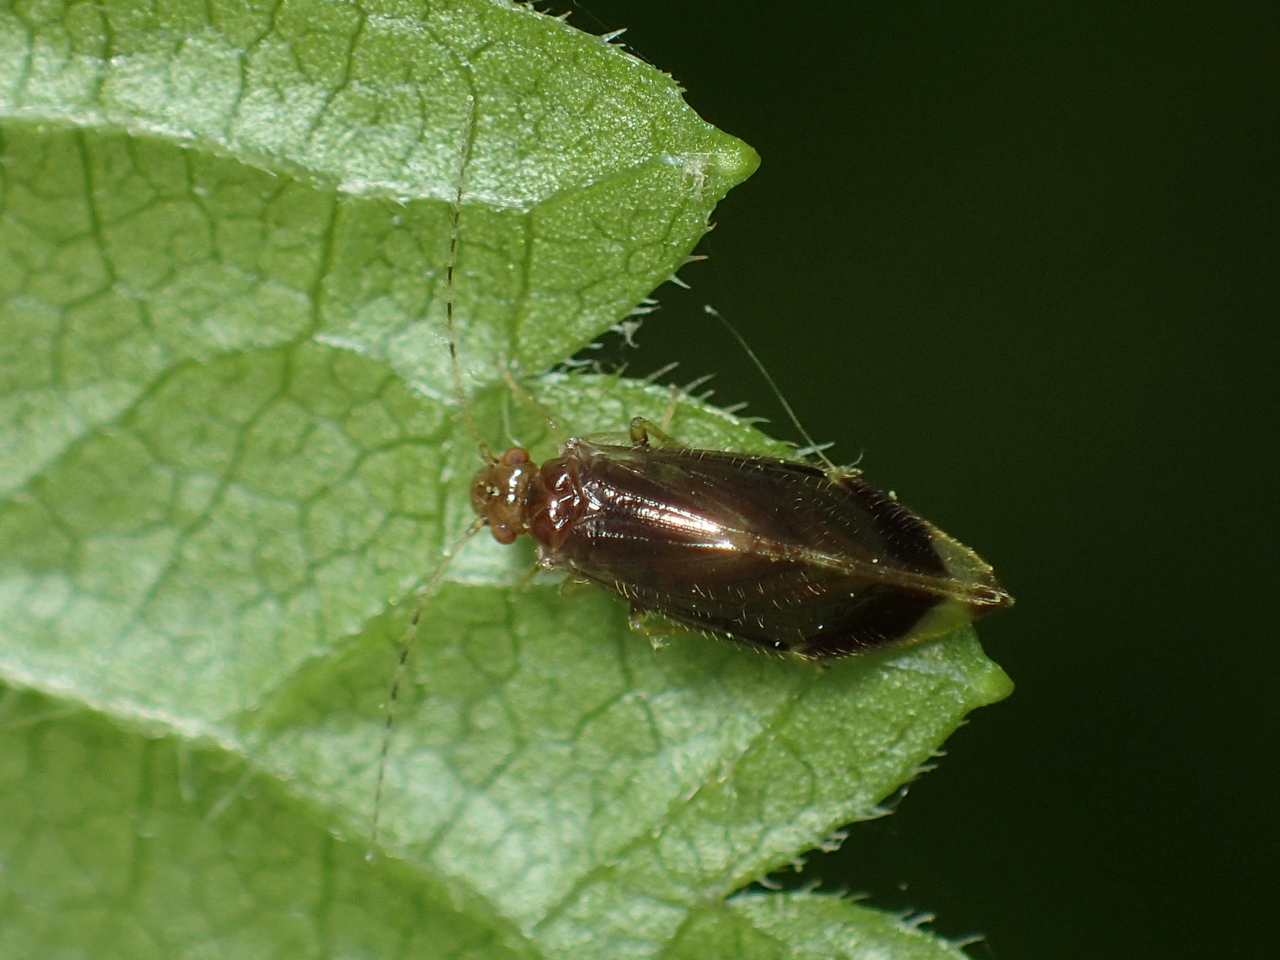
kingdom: Animalia
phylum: Arthropoda
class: Insecta
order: Psocodea
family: Amphipsocidae
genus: Polypsocus
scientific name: Polypsocus corruptus
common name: Corrupt barklouse
